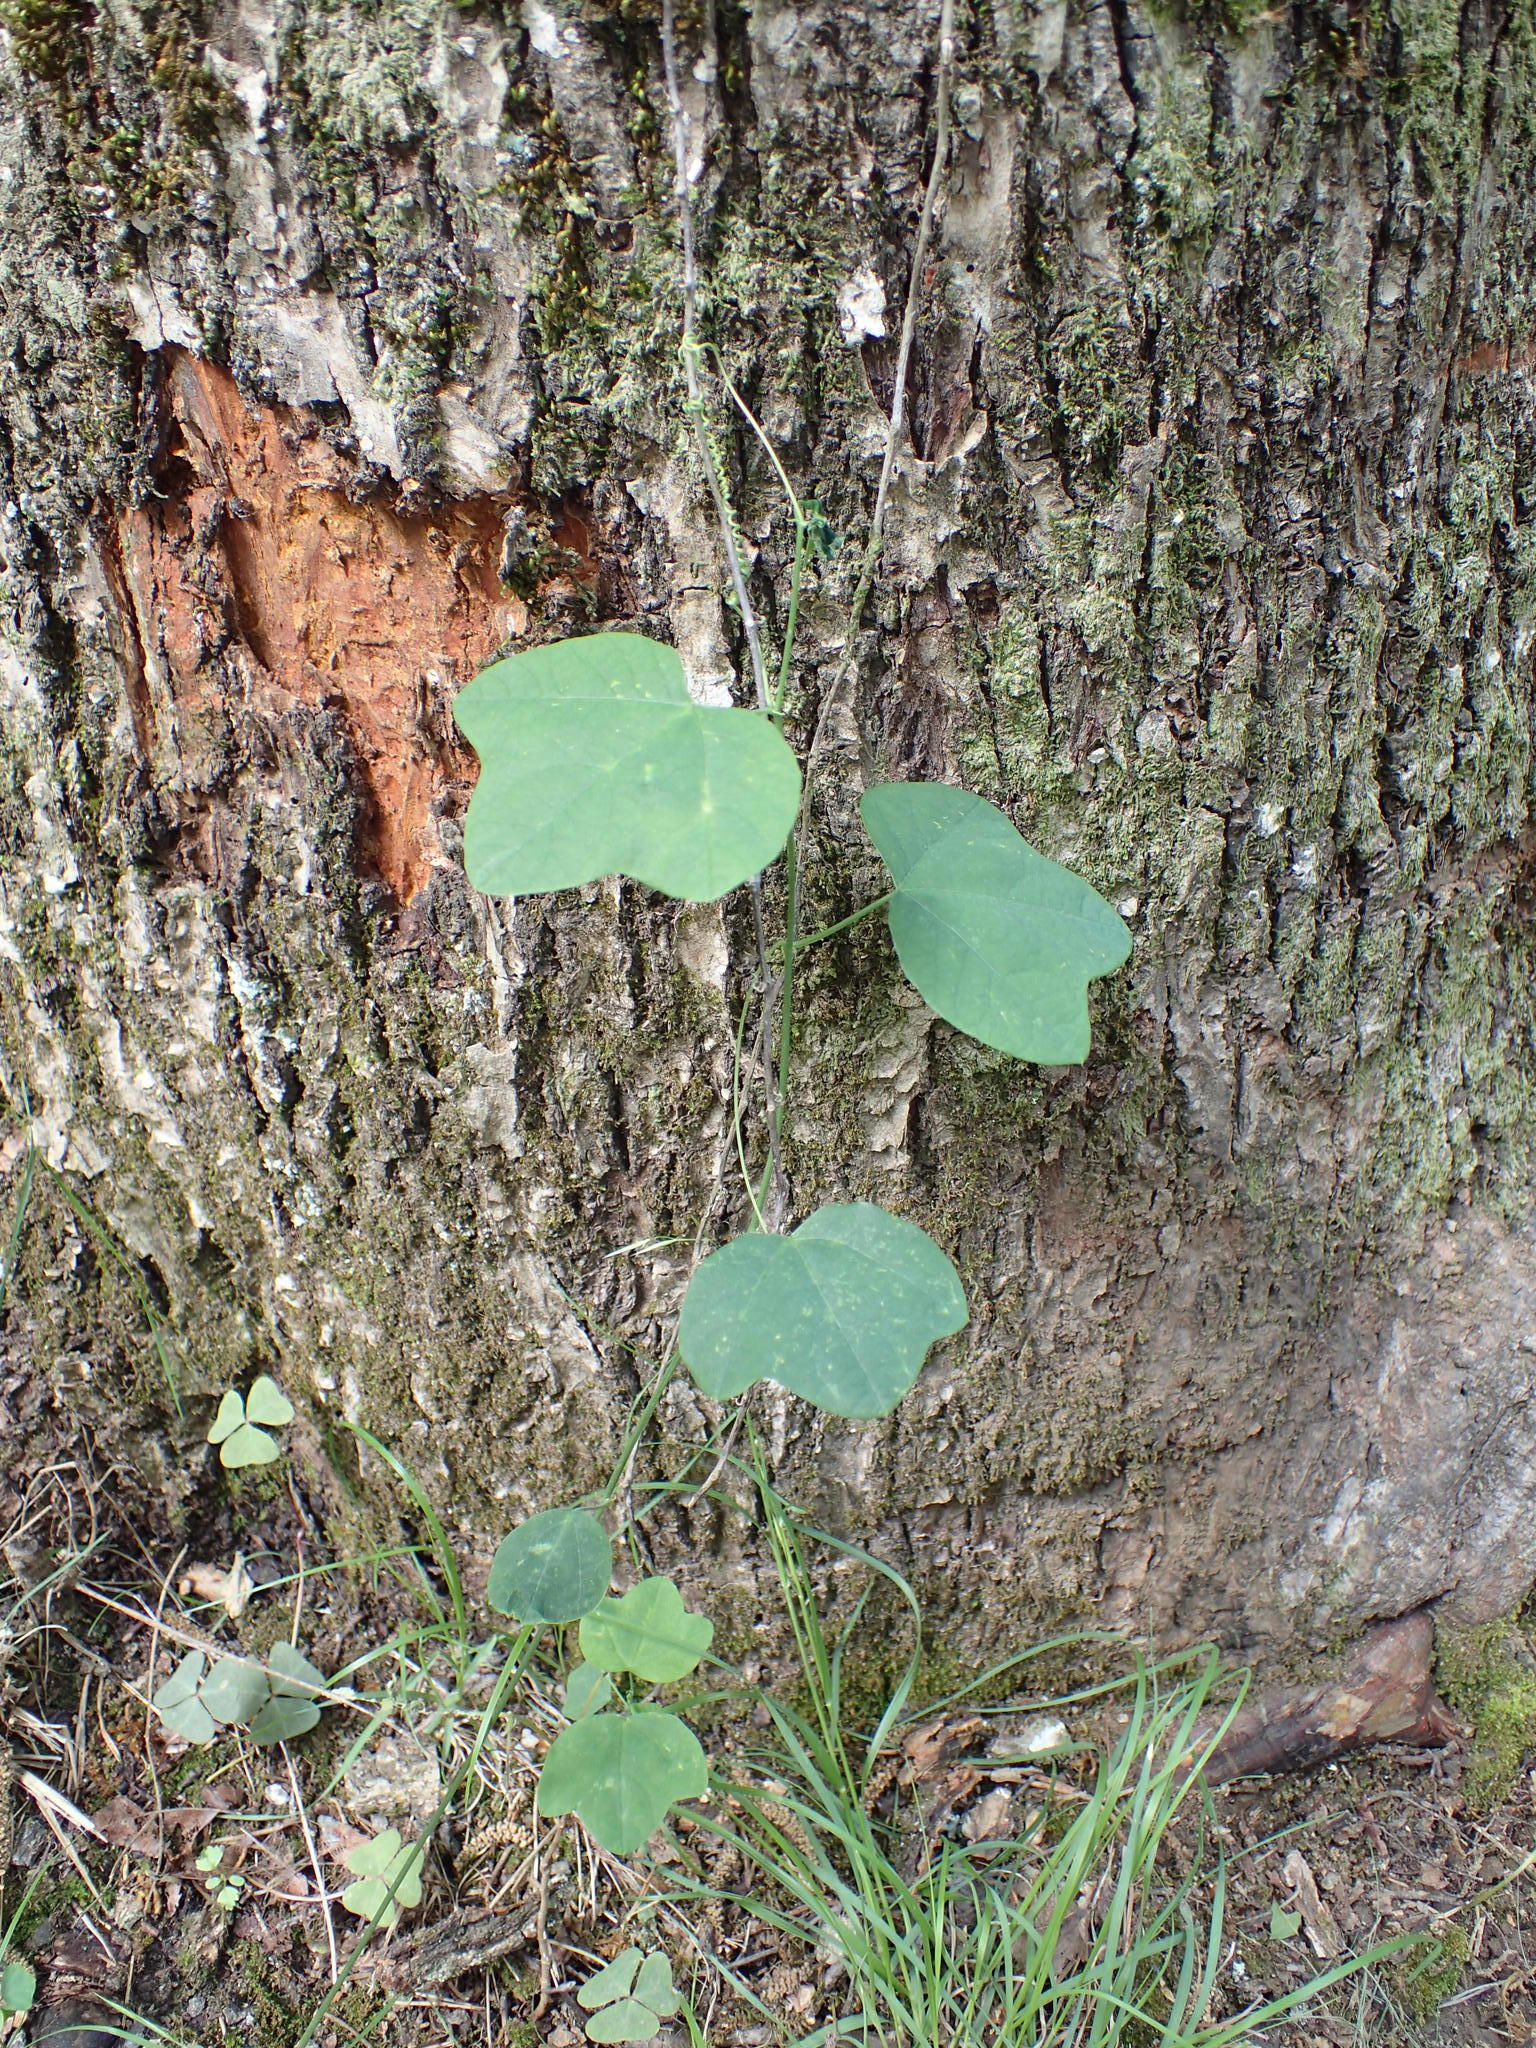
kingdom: Plantae
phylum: Tracheophyta
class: Magnoliopsida
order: Malpighiales
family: Passifloraceae
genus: Passiflora
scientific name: Passiflora lutea
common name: Yellow passionflower
